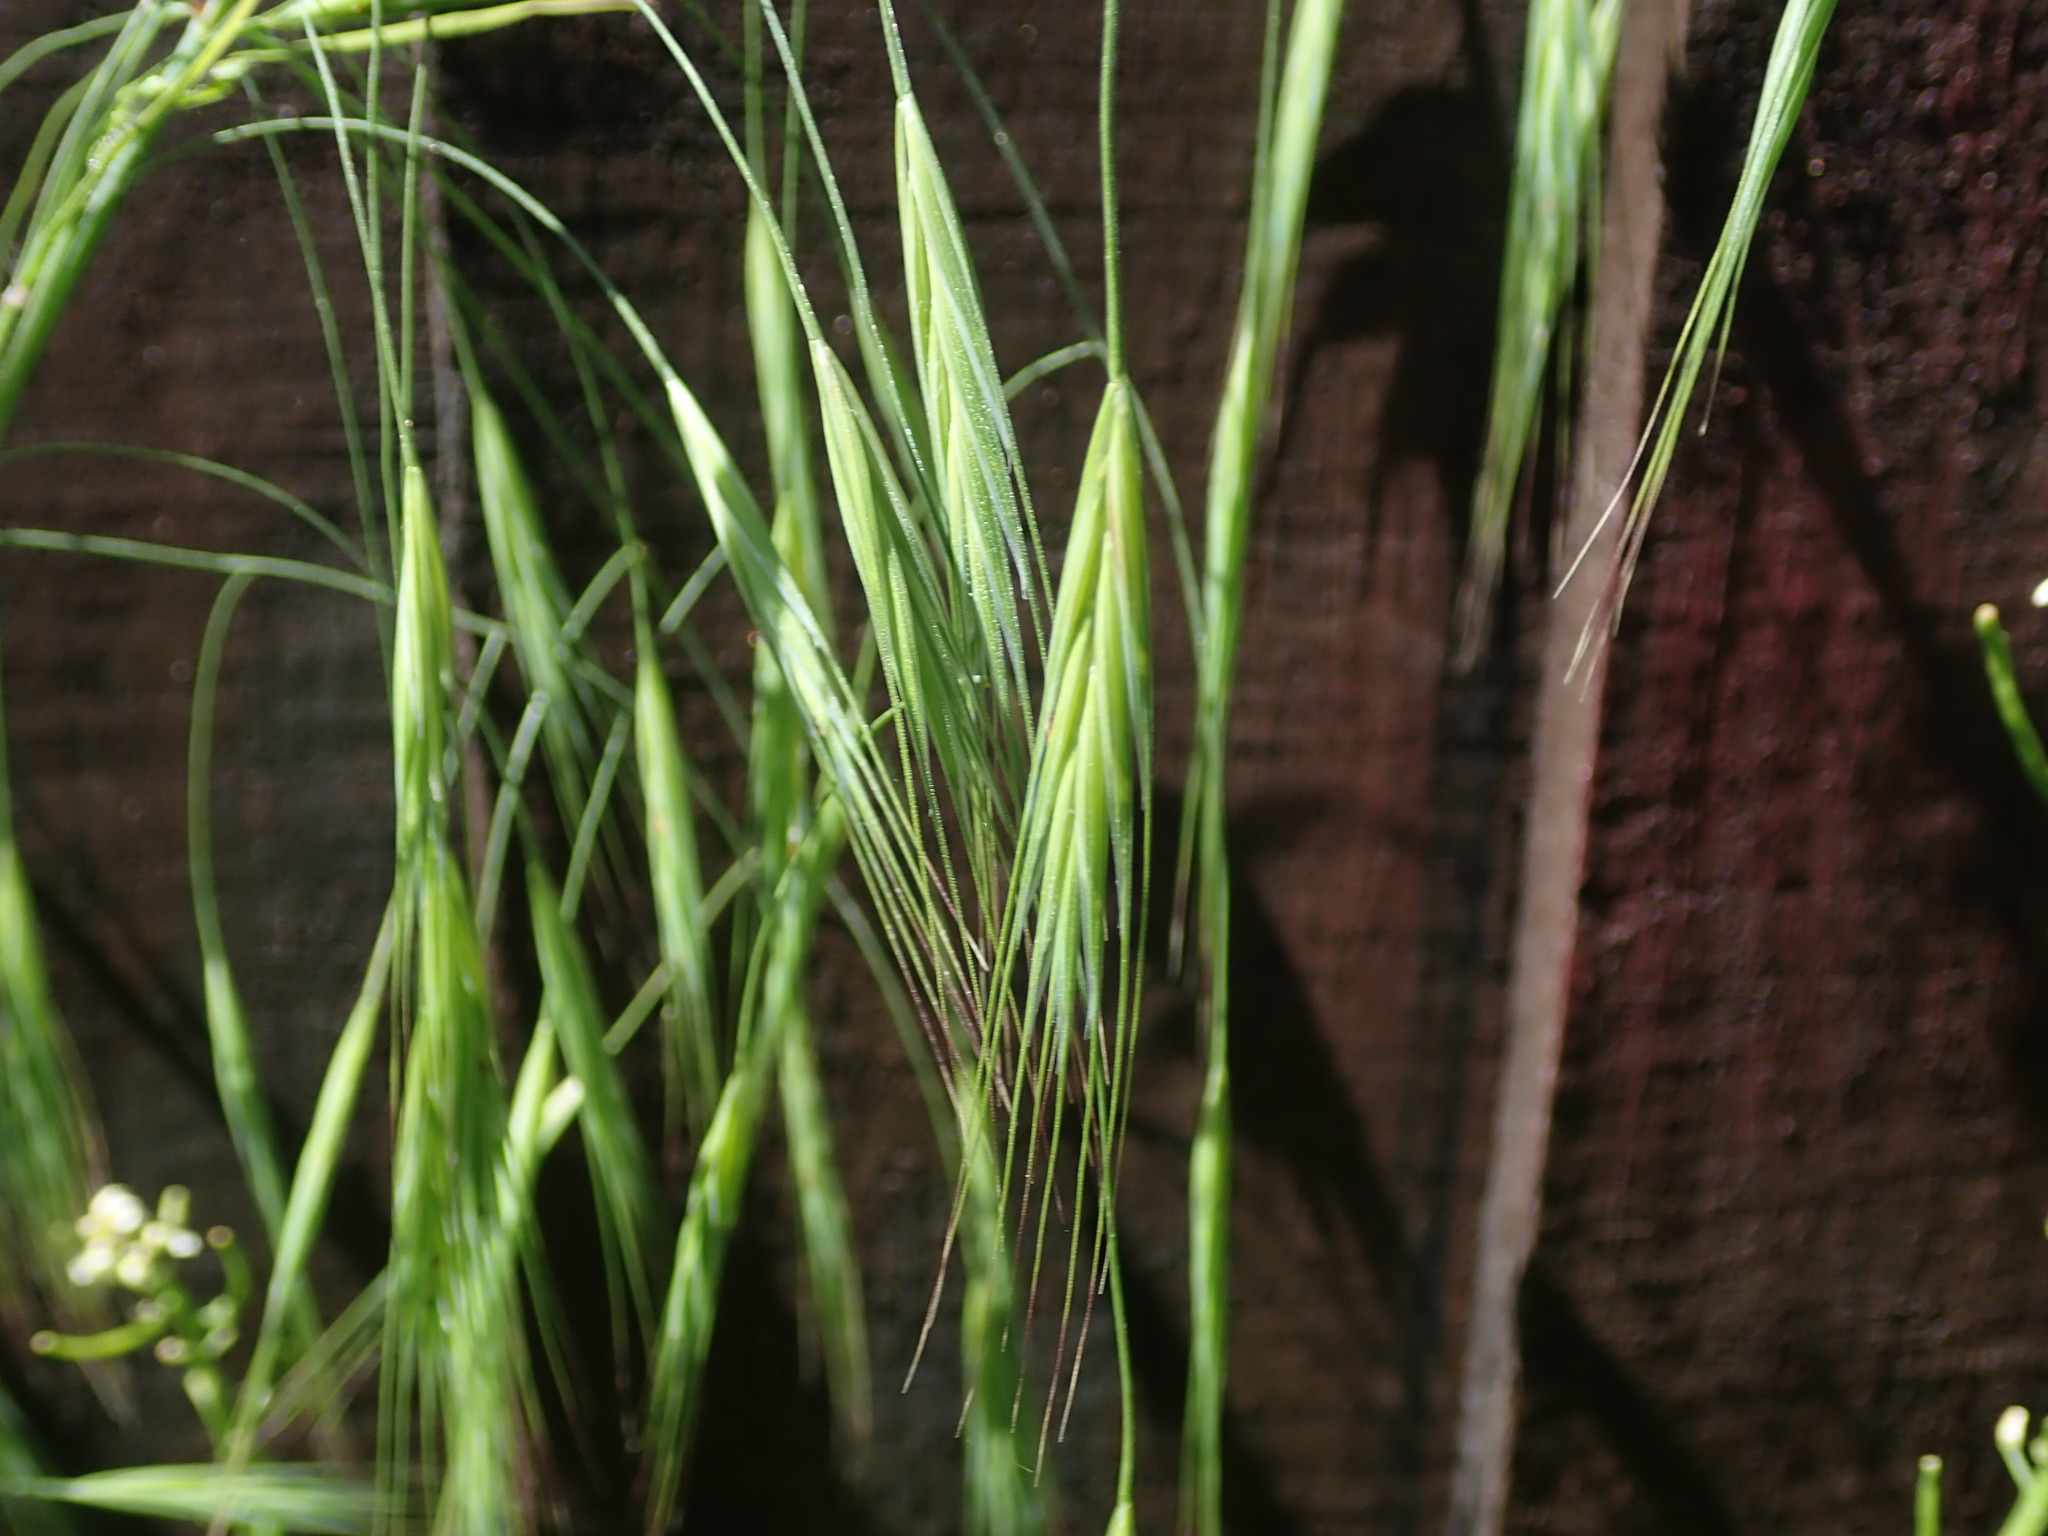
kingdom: Plantae
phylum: Tracheophyta
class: Liliopsida
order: Poales
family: Poaceae
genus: Bromus
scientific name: Bromus sterilis
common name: Poverty brome
